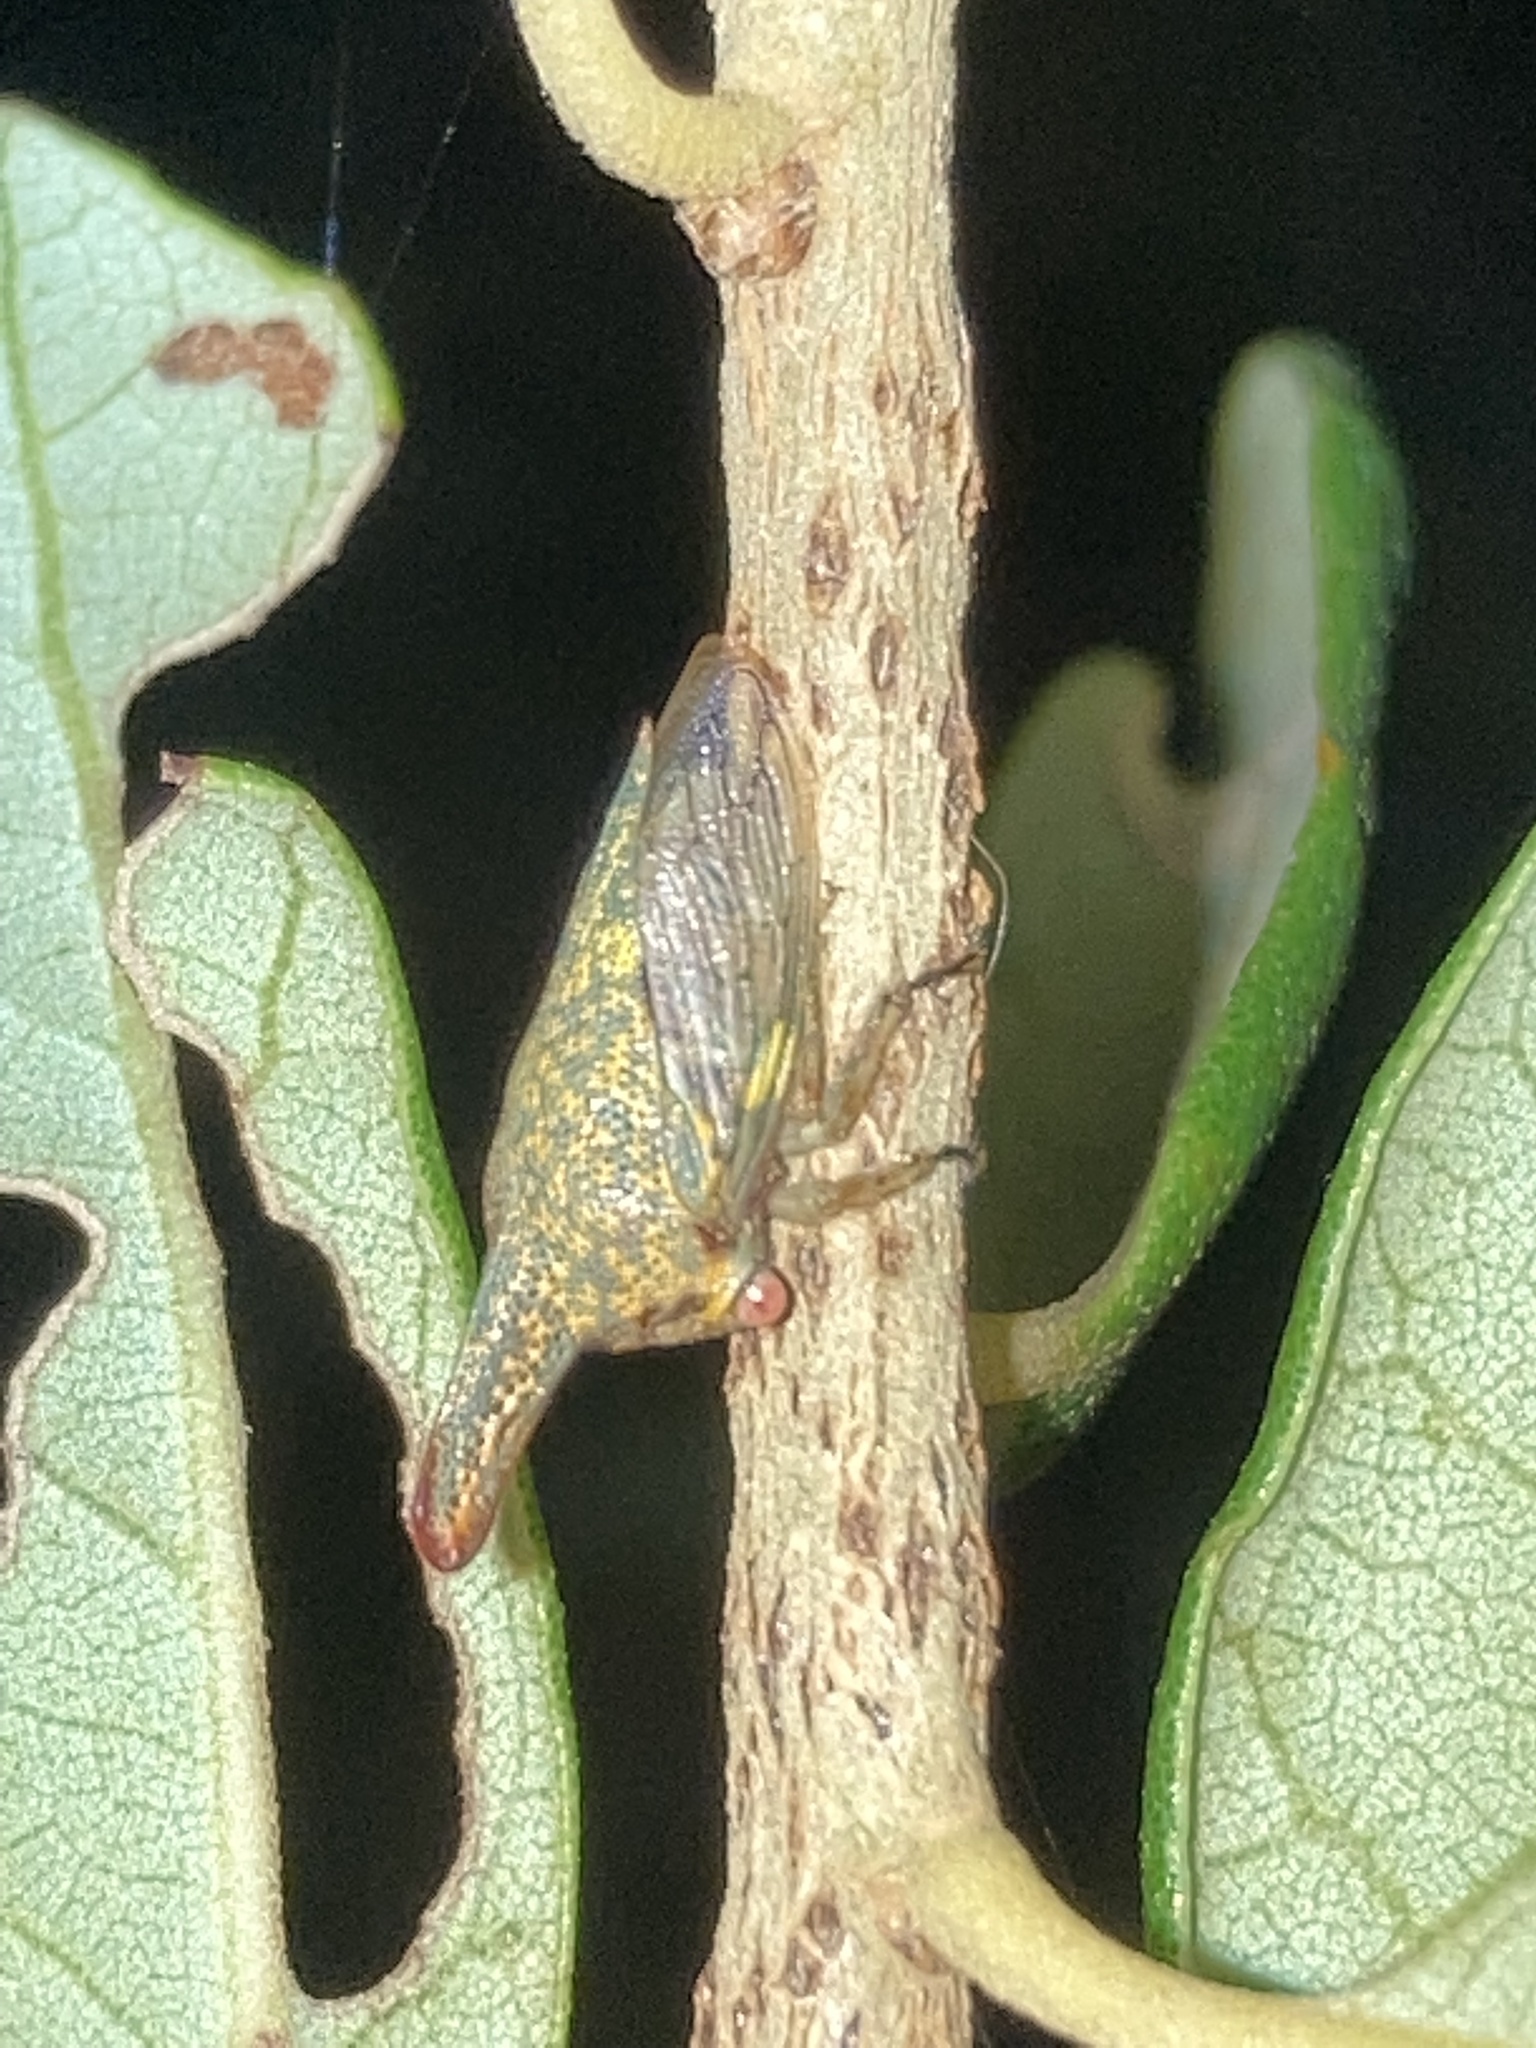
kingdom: Animalia
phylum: Arthropoda
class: Insecta
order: Hemiptera
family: Membracidae
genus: Platycotis
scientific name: Platycotis vittatus
